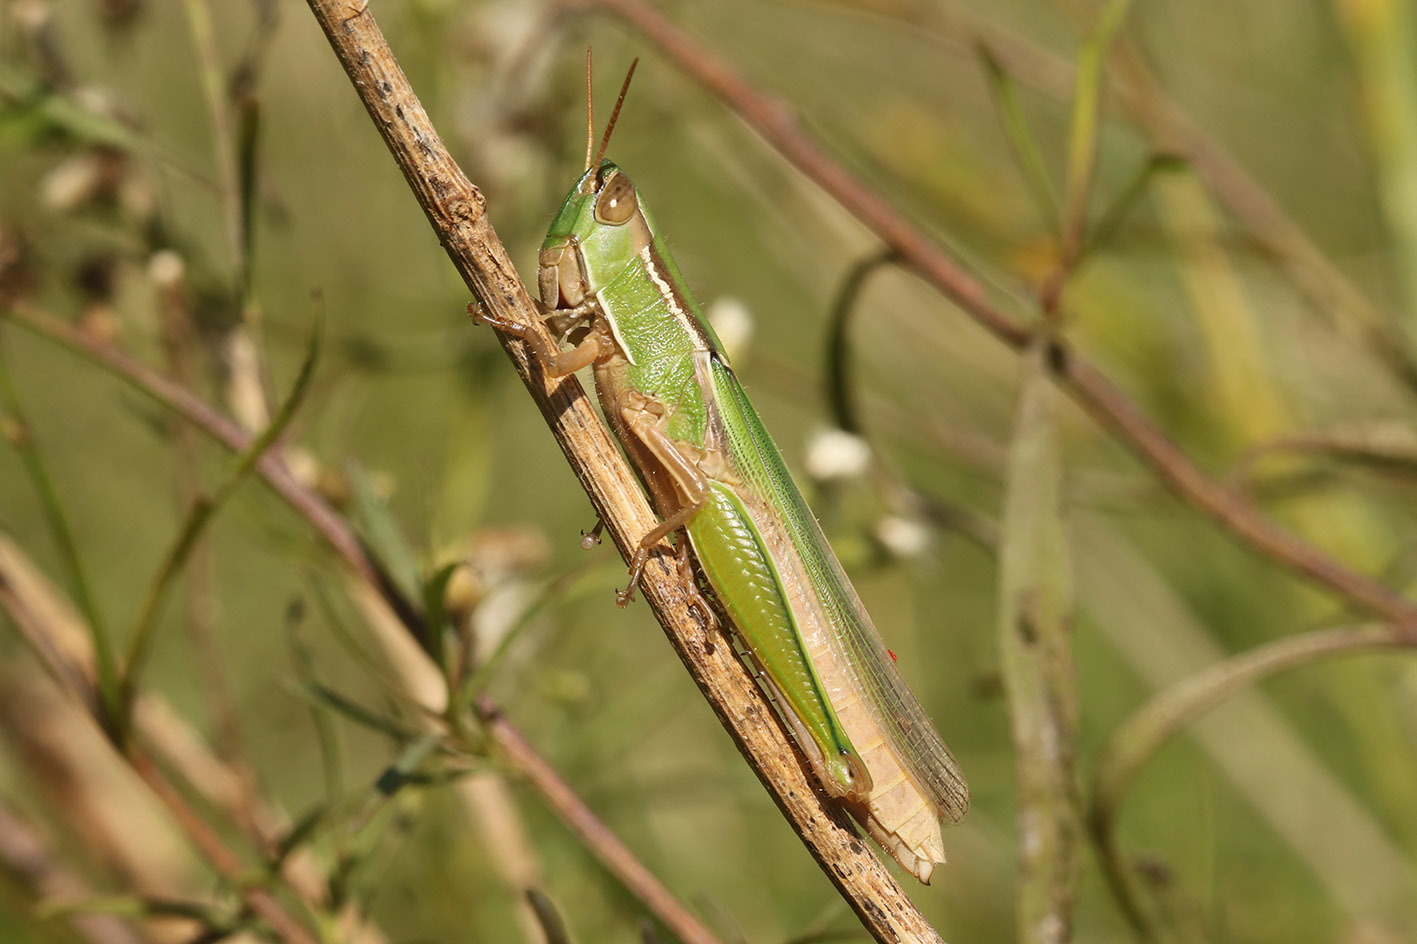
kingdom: Animalia
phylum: Arthropoda
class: Insecta
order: Orthoptera
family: Acrididae
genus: Aleuas
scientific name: Aleuas lineatus
